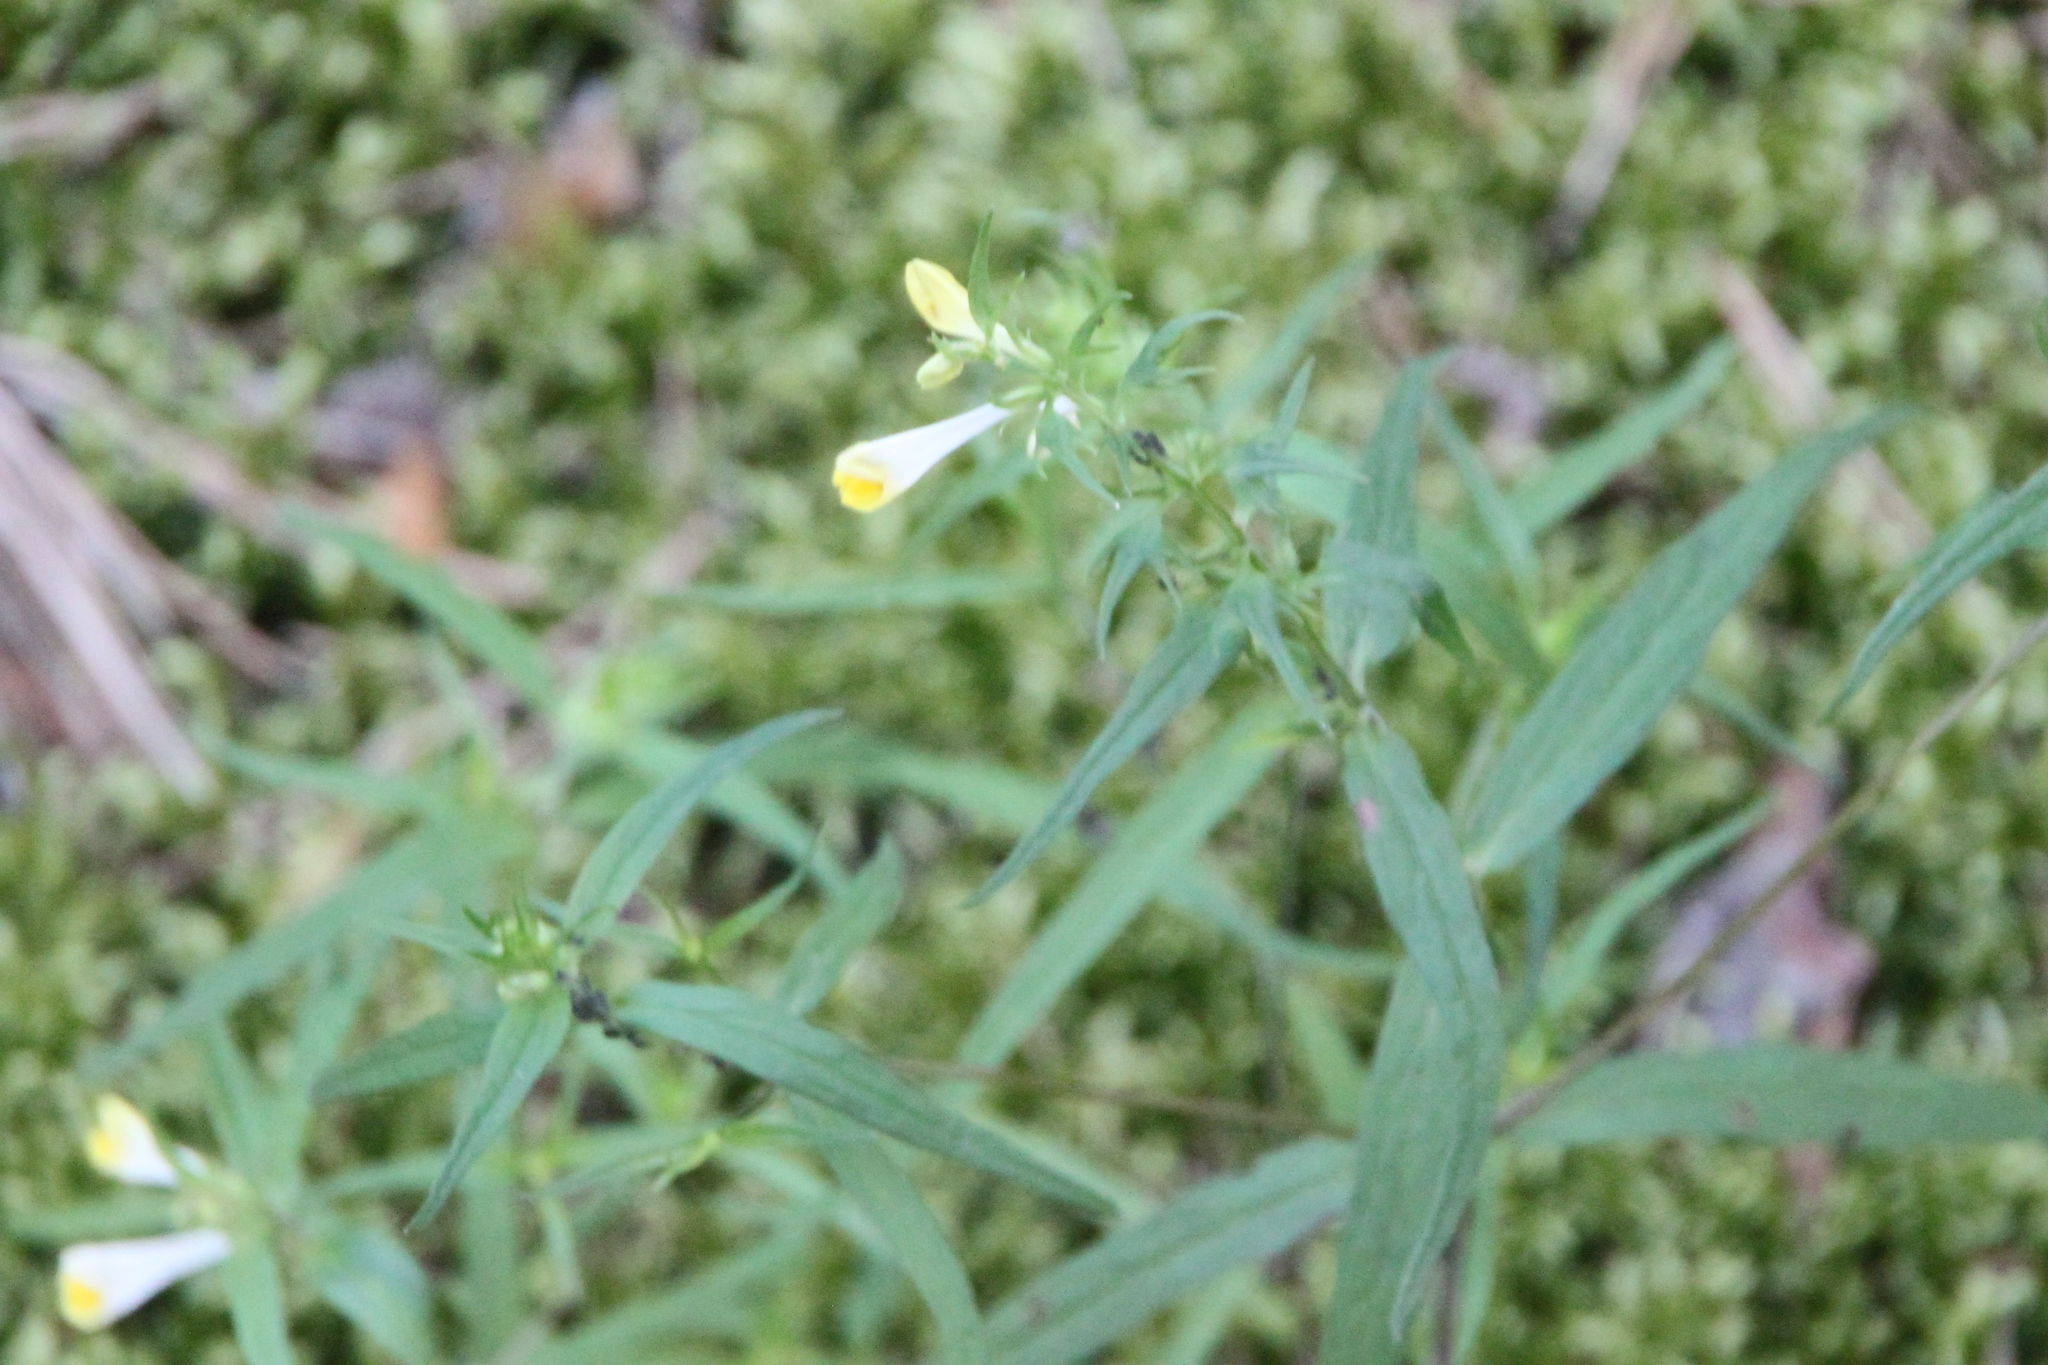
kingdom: Plantae
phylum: Tracheophyta
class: Magnoliopsida
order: Lamiales
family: Orobanchaceae
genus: Melampyrum
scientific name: Melampyrum pratense
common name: Common cow-wheat
